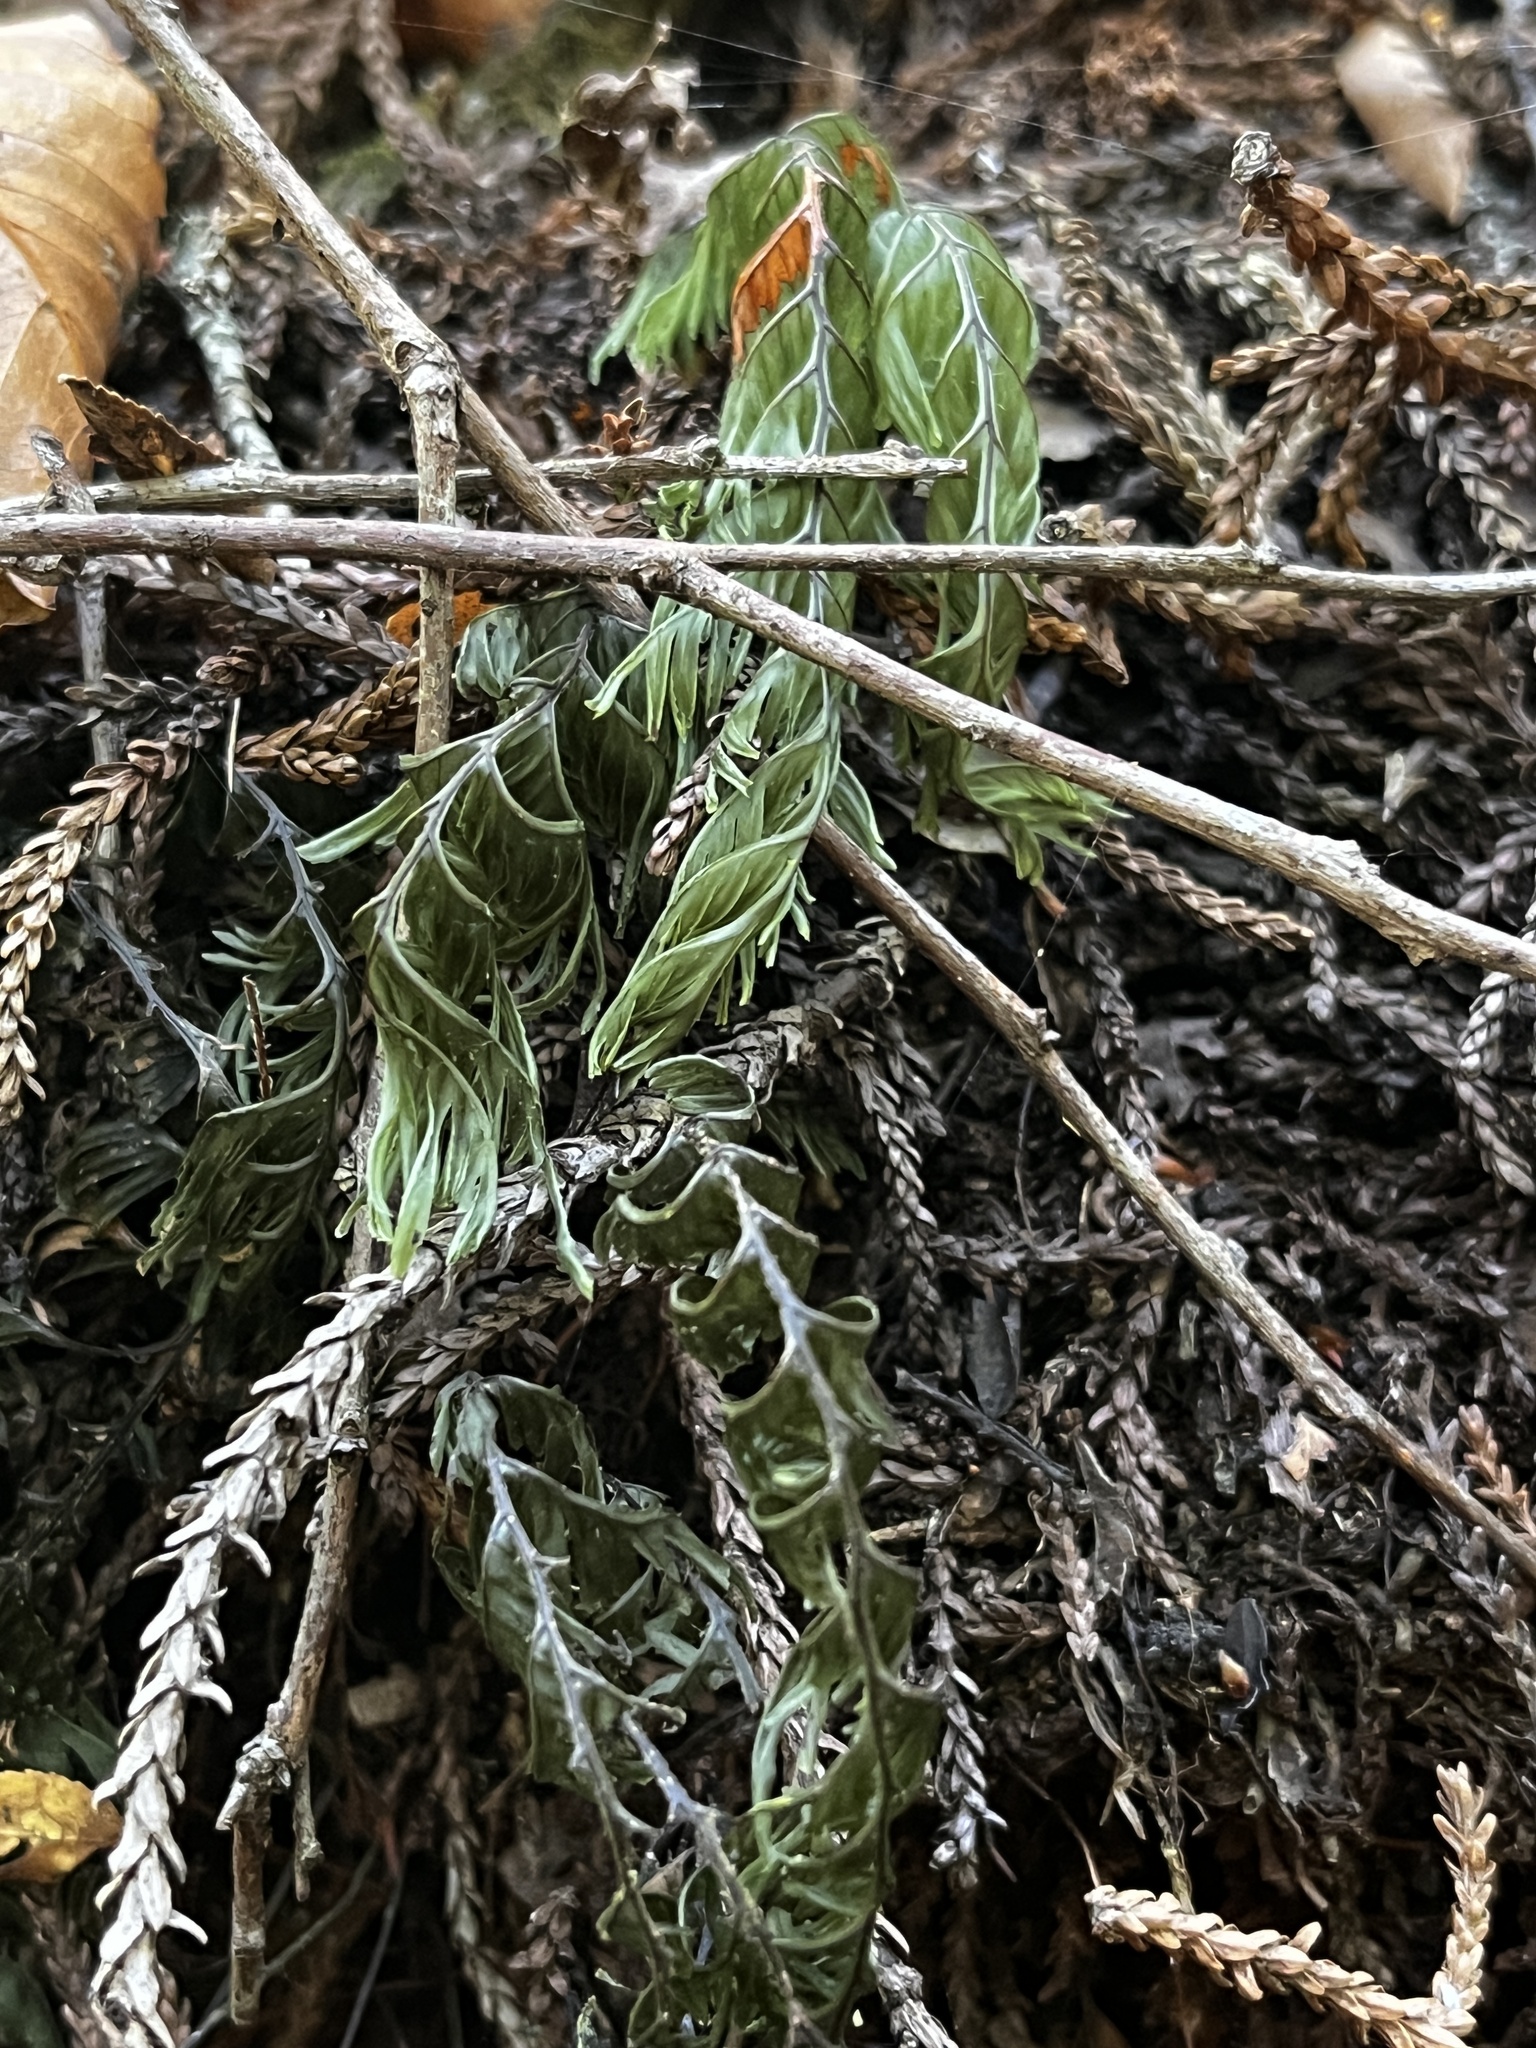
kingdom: Plantae
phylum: Tracheophyta
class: Polypodiopsida
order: Hymenophyllales
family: Hymenophyllaceae
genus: Hymenophyllum
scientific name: Hymenophyllum pectinatum
